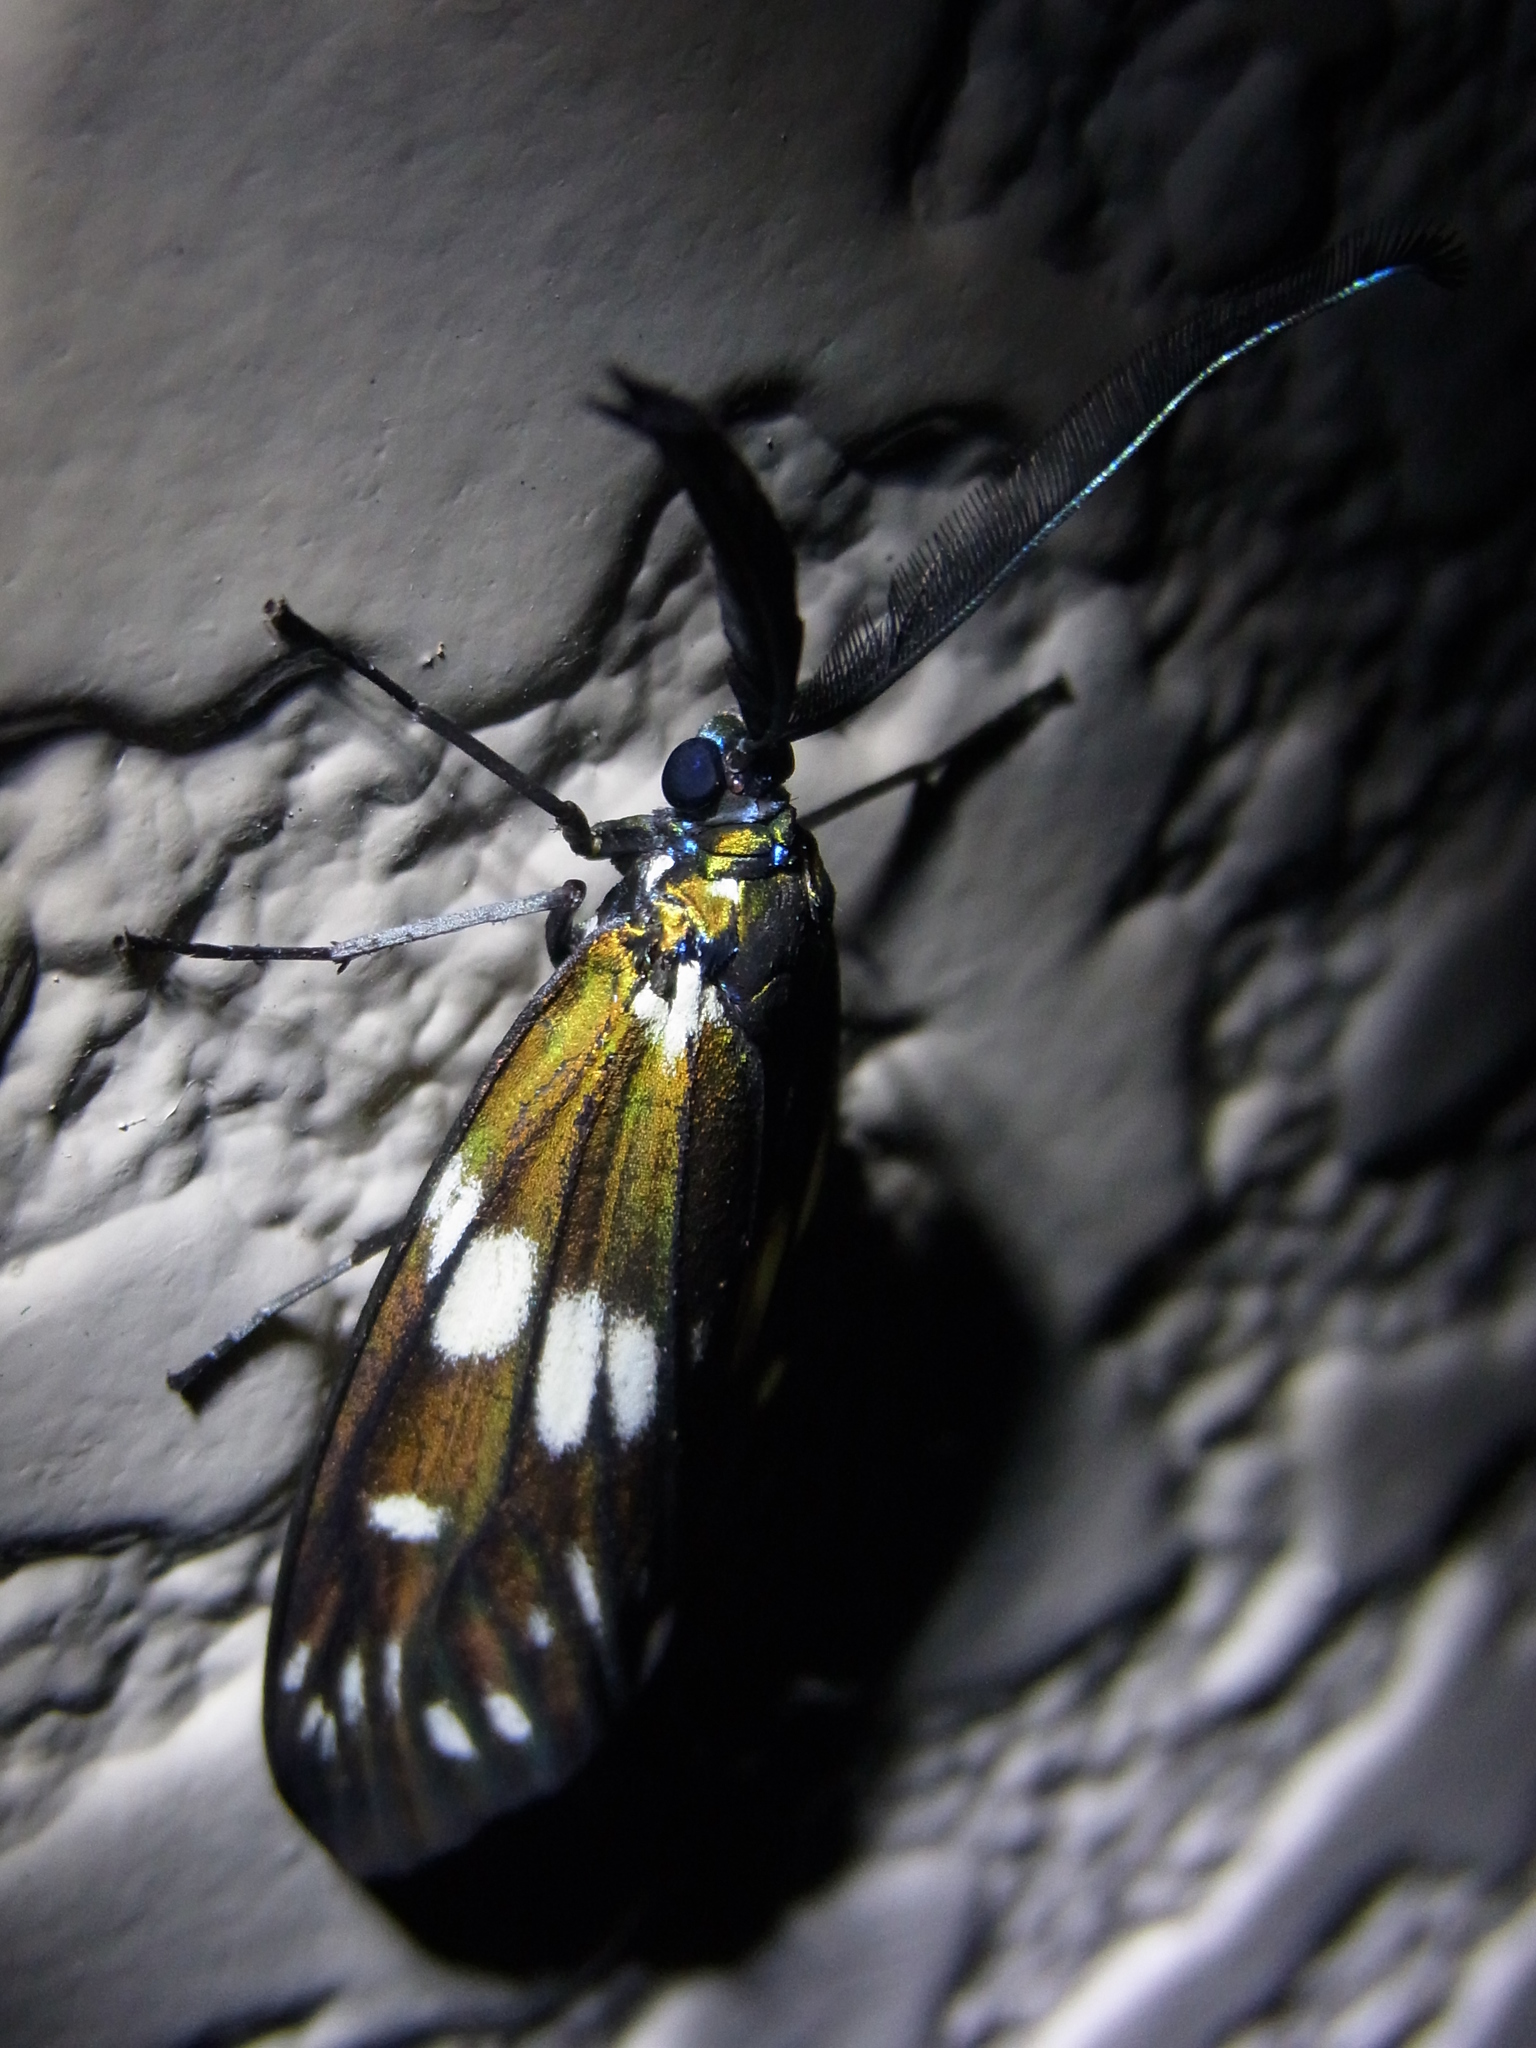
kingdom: Animalia
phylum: Arthropoda
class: Insecta
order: Lepidoptera
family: Zygaenidae
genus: Eterusia
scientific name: Eterusia aedea
